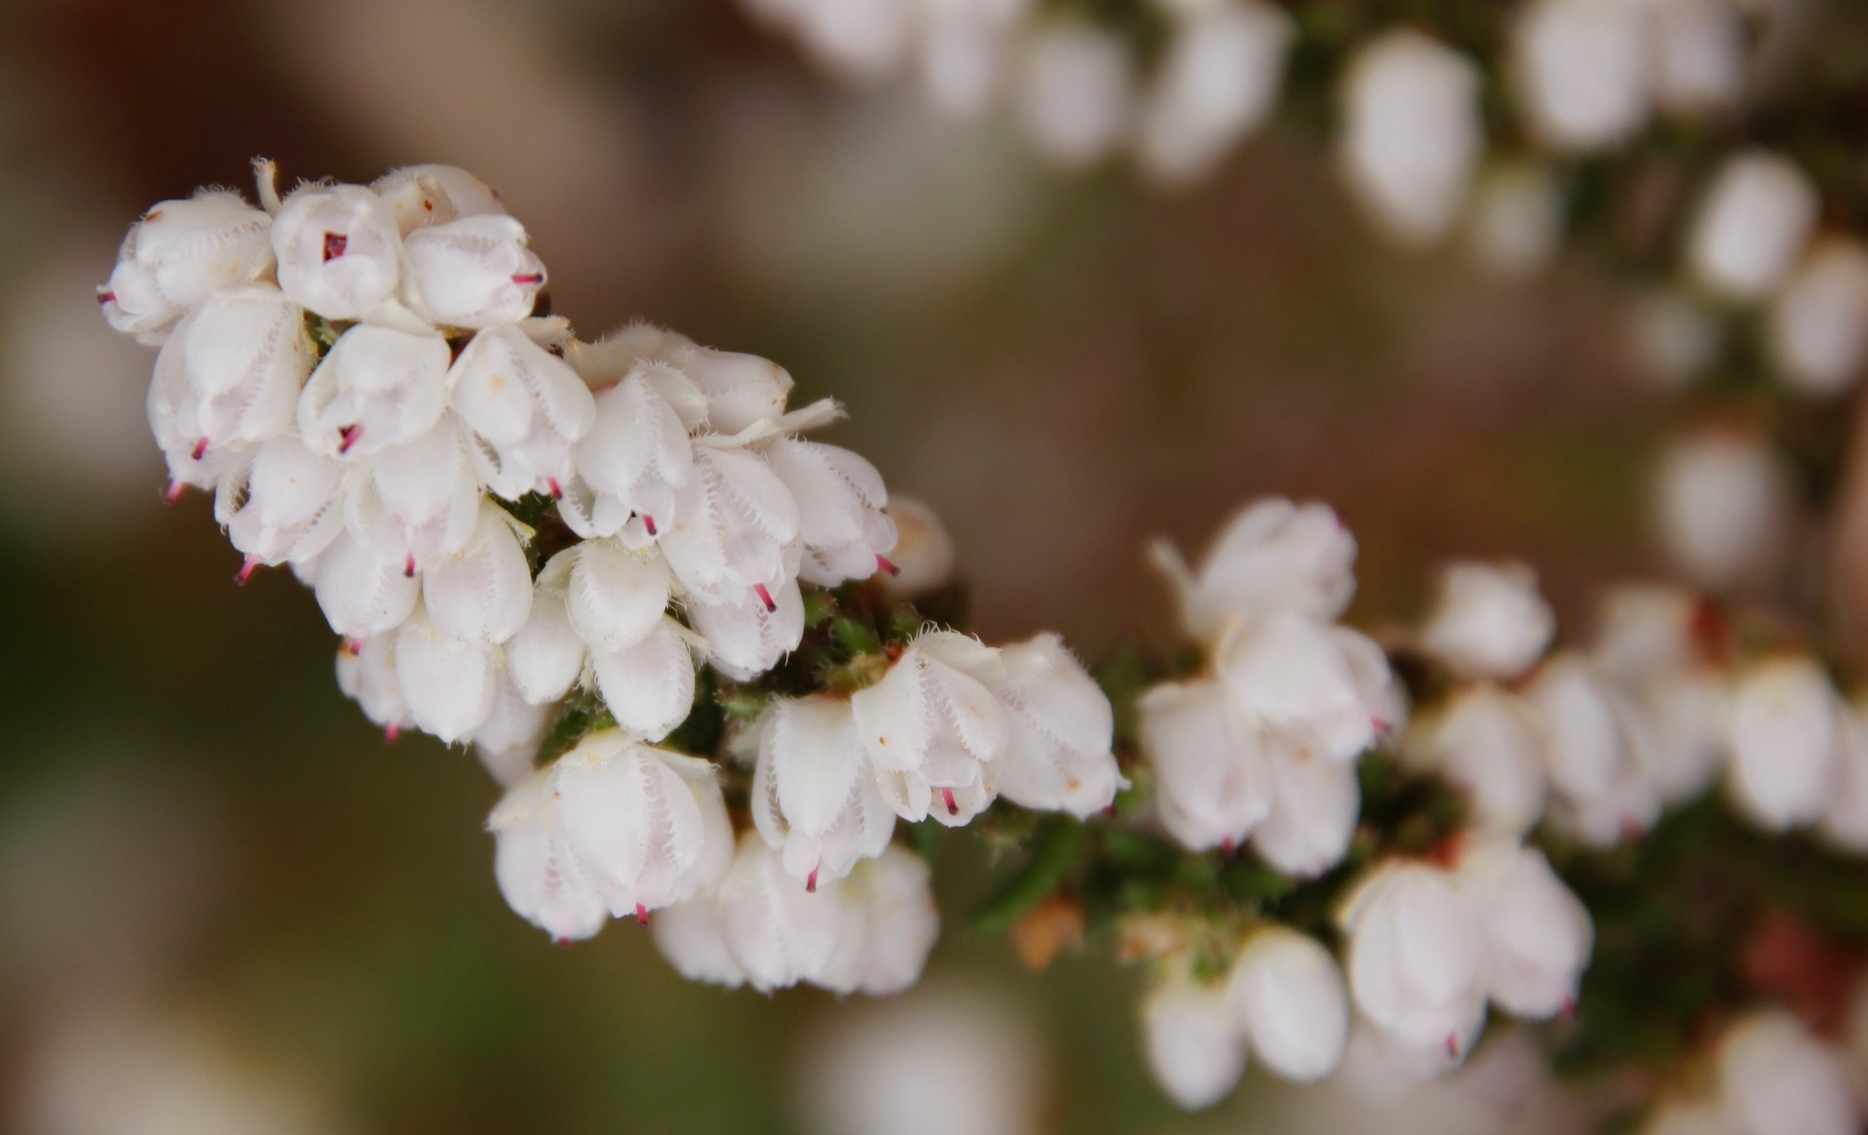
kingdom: Plantae
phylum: Tracheophyta
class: Magnoliopsida
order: Ericales
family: Ericaceae
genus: Erica
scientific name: Erica totta
